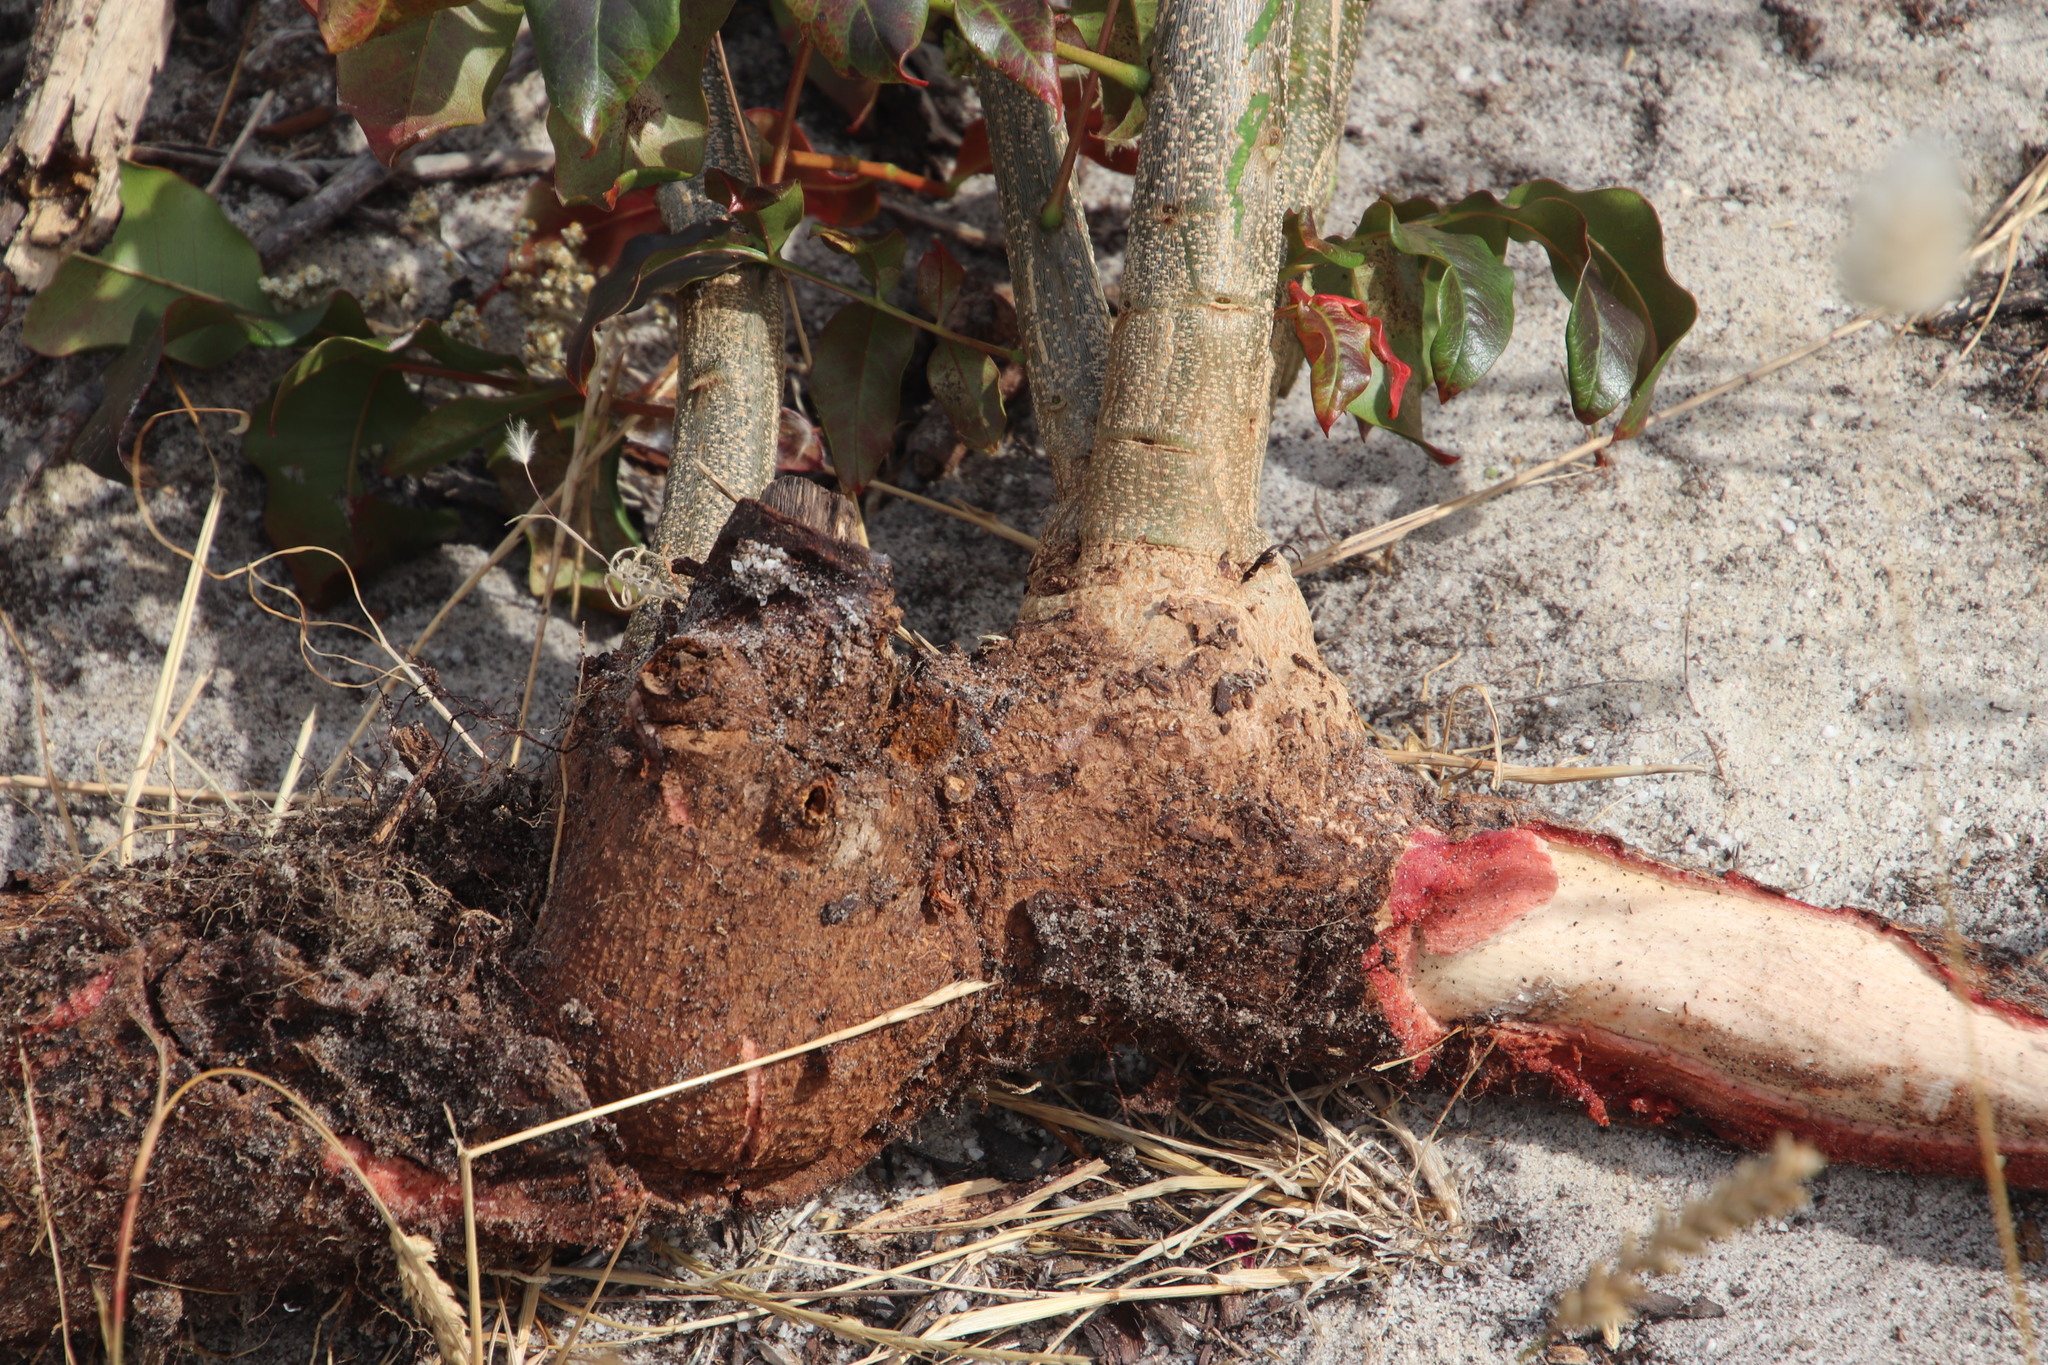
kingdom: Plantae
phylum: Tracheophyta
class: Magnoliopsida
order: Sapindales
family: Meliaceae
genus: Ekebergia
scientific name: Ekebergia capensis
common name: Cape-ash
